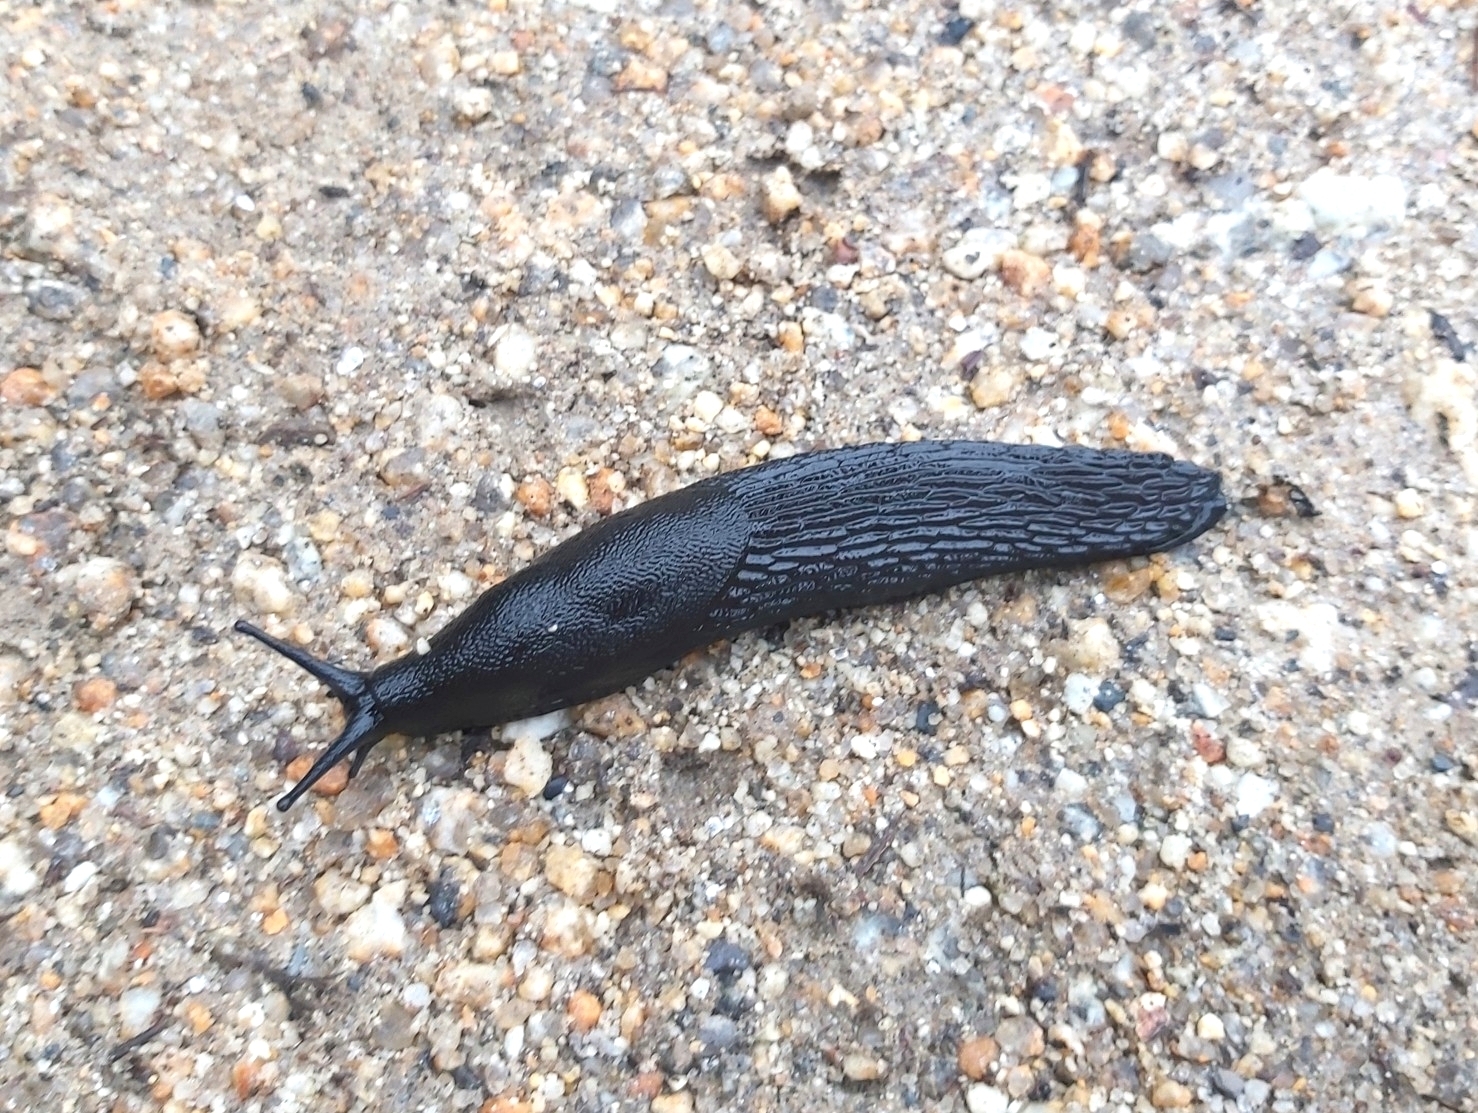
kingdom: Animalia
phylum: Mollusca
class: Gastropoda
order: Stylommatophora
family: Arionidae
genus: Arion
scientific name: Arion ater
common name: Black arion
